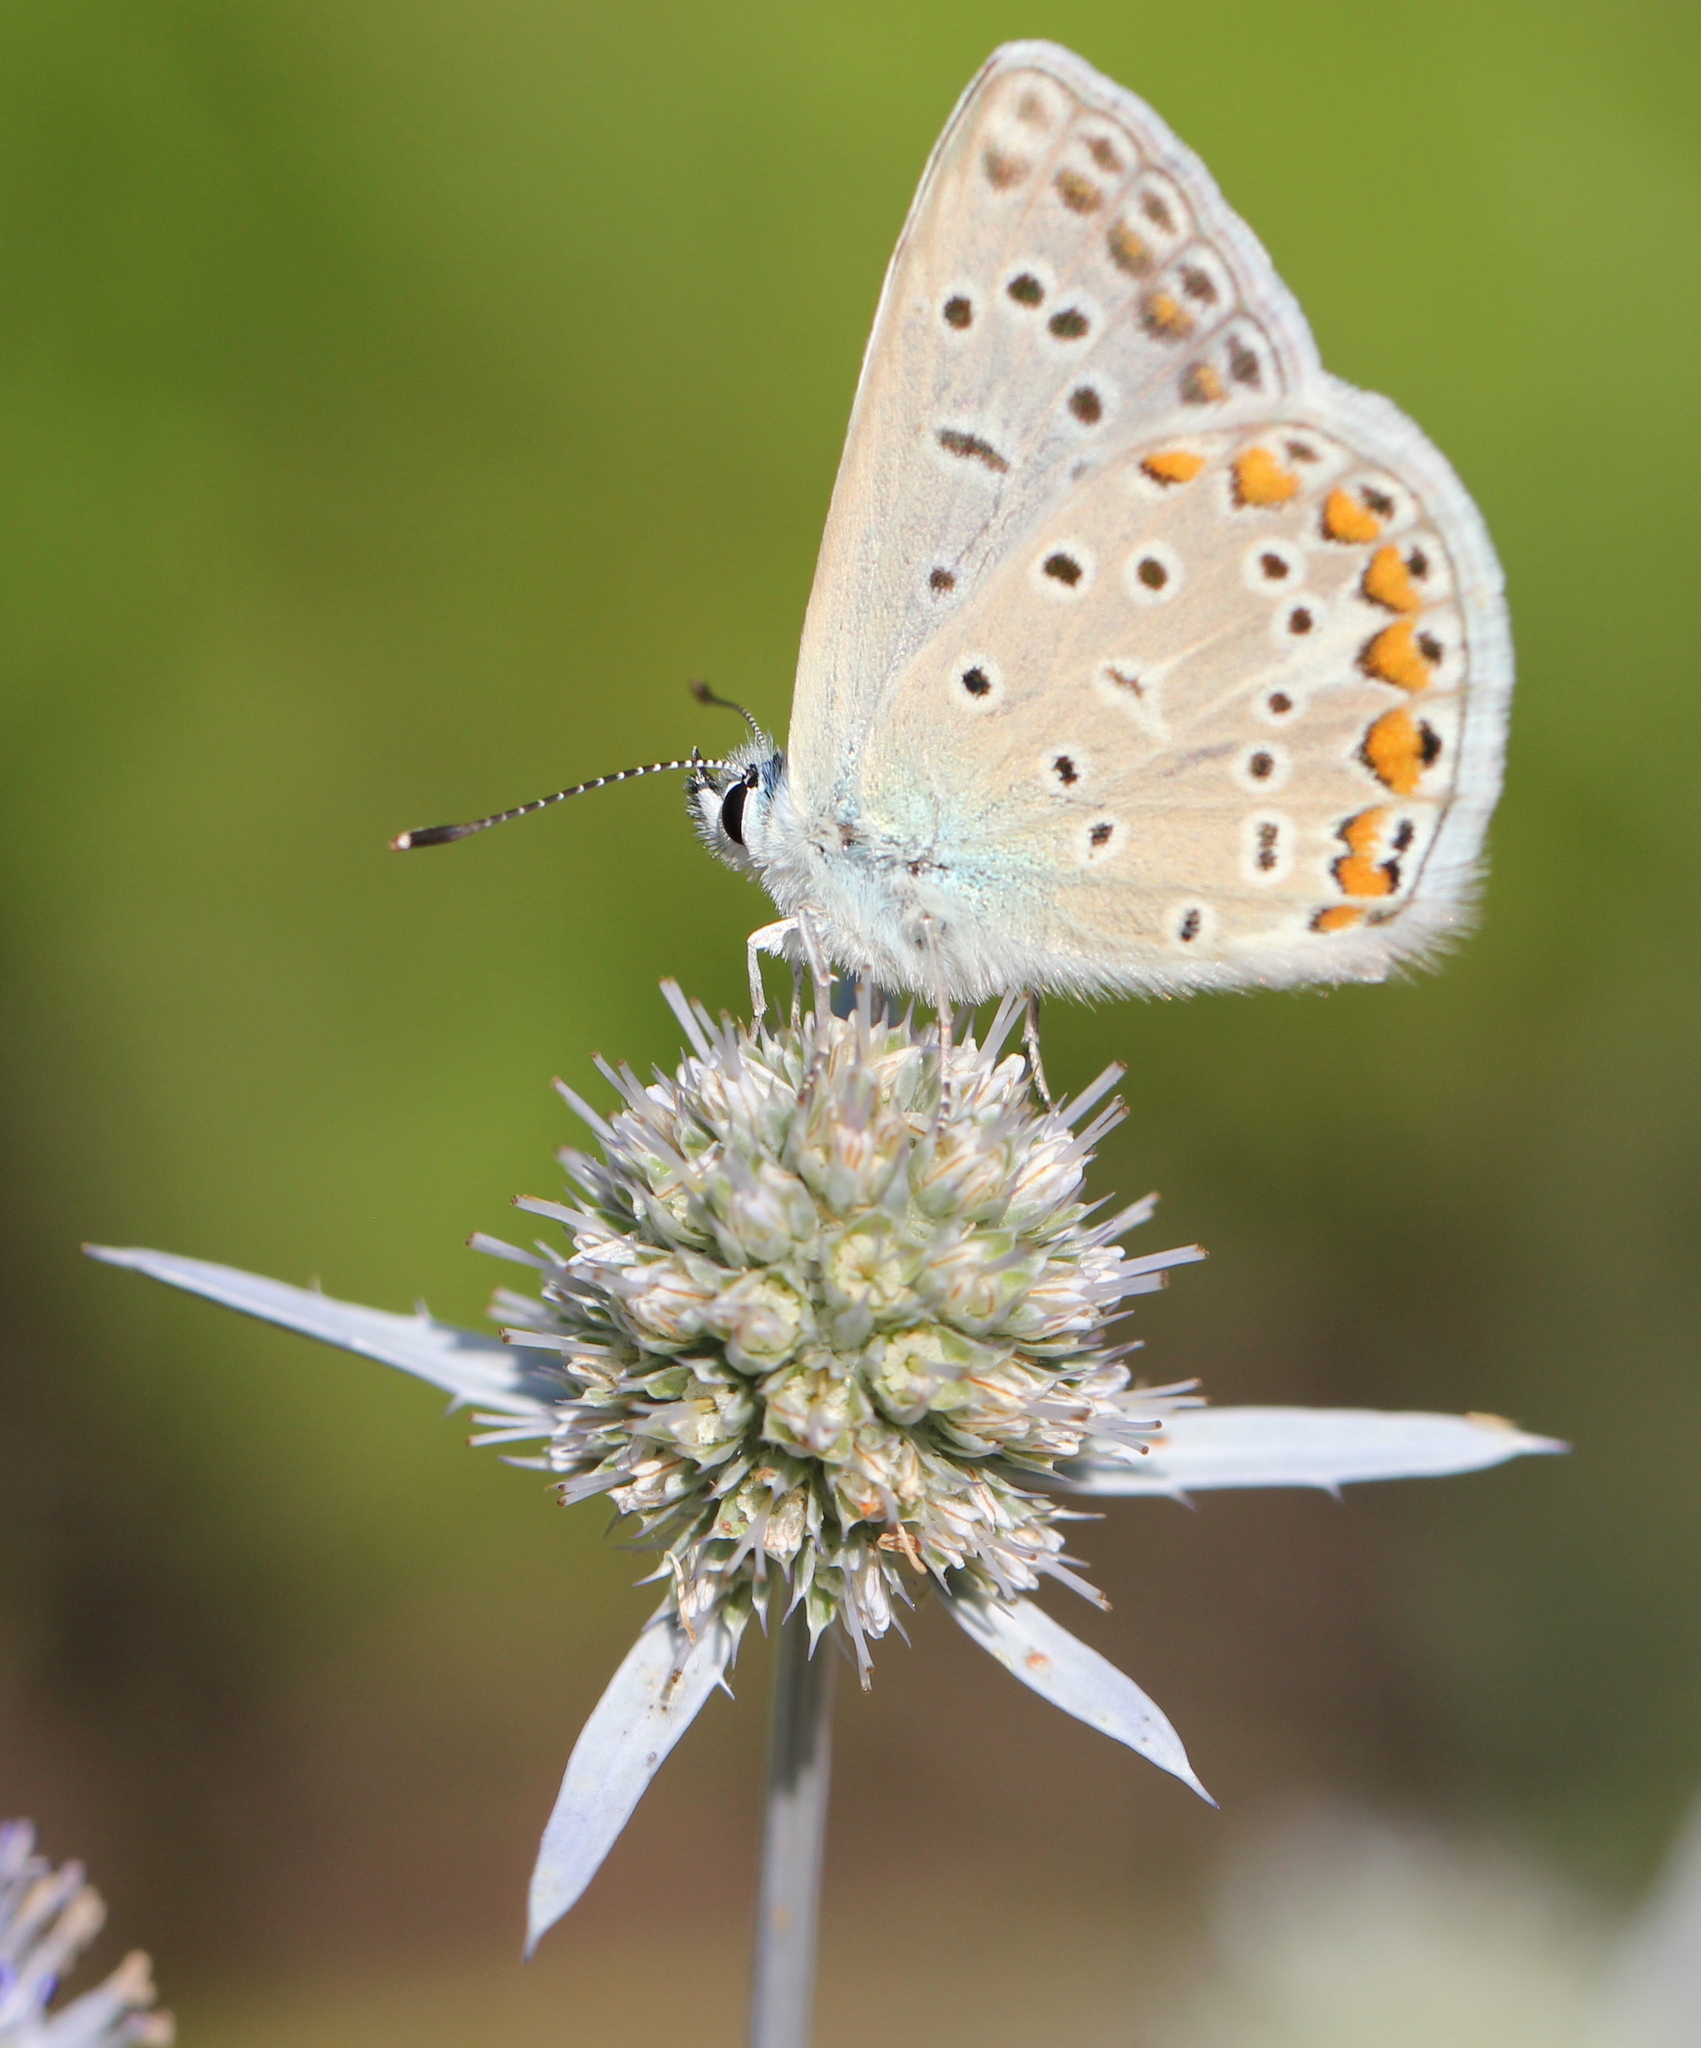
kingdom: Animalia
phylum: Arthropoda
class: Insecta
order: Lepidoptera
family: Lycaenidae
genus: Polyommatus
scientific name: Polyommatus icarus
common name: Common blue
